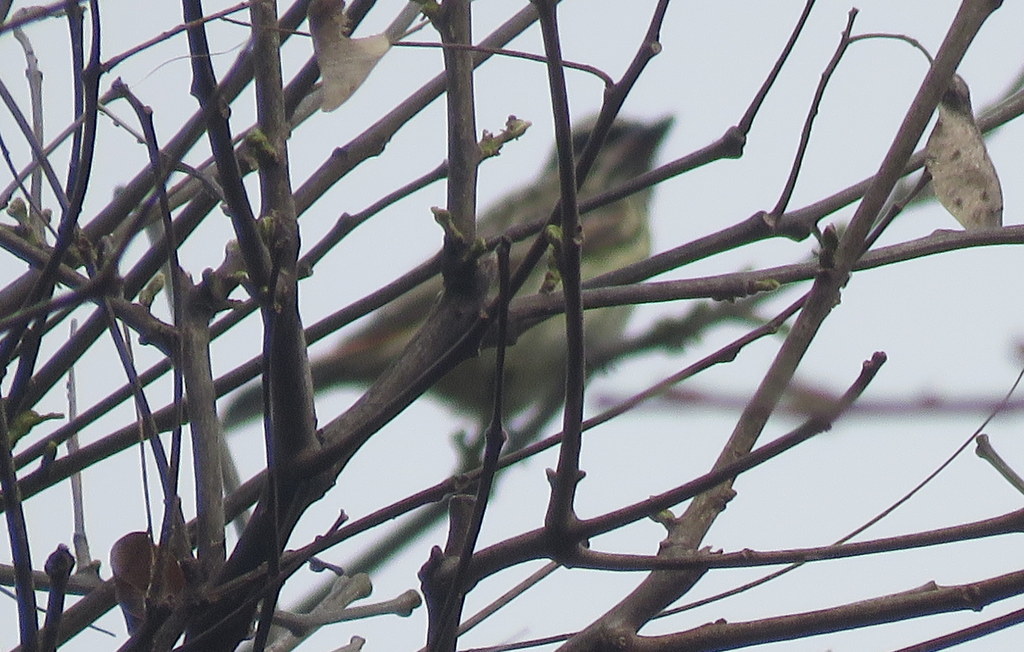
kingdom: Animalia
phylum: Chordata
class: Aves
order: Passeriformes
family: Tyrannidae
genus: Myiodynastes
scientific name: Myiodynastes maculatus
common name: Streaked flycatcher
